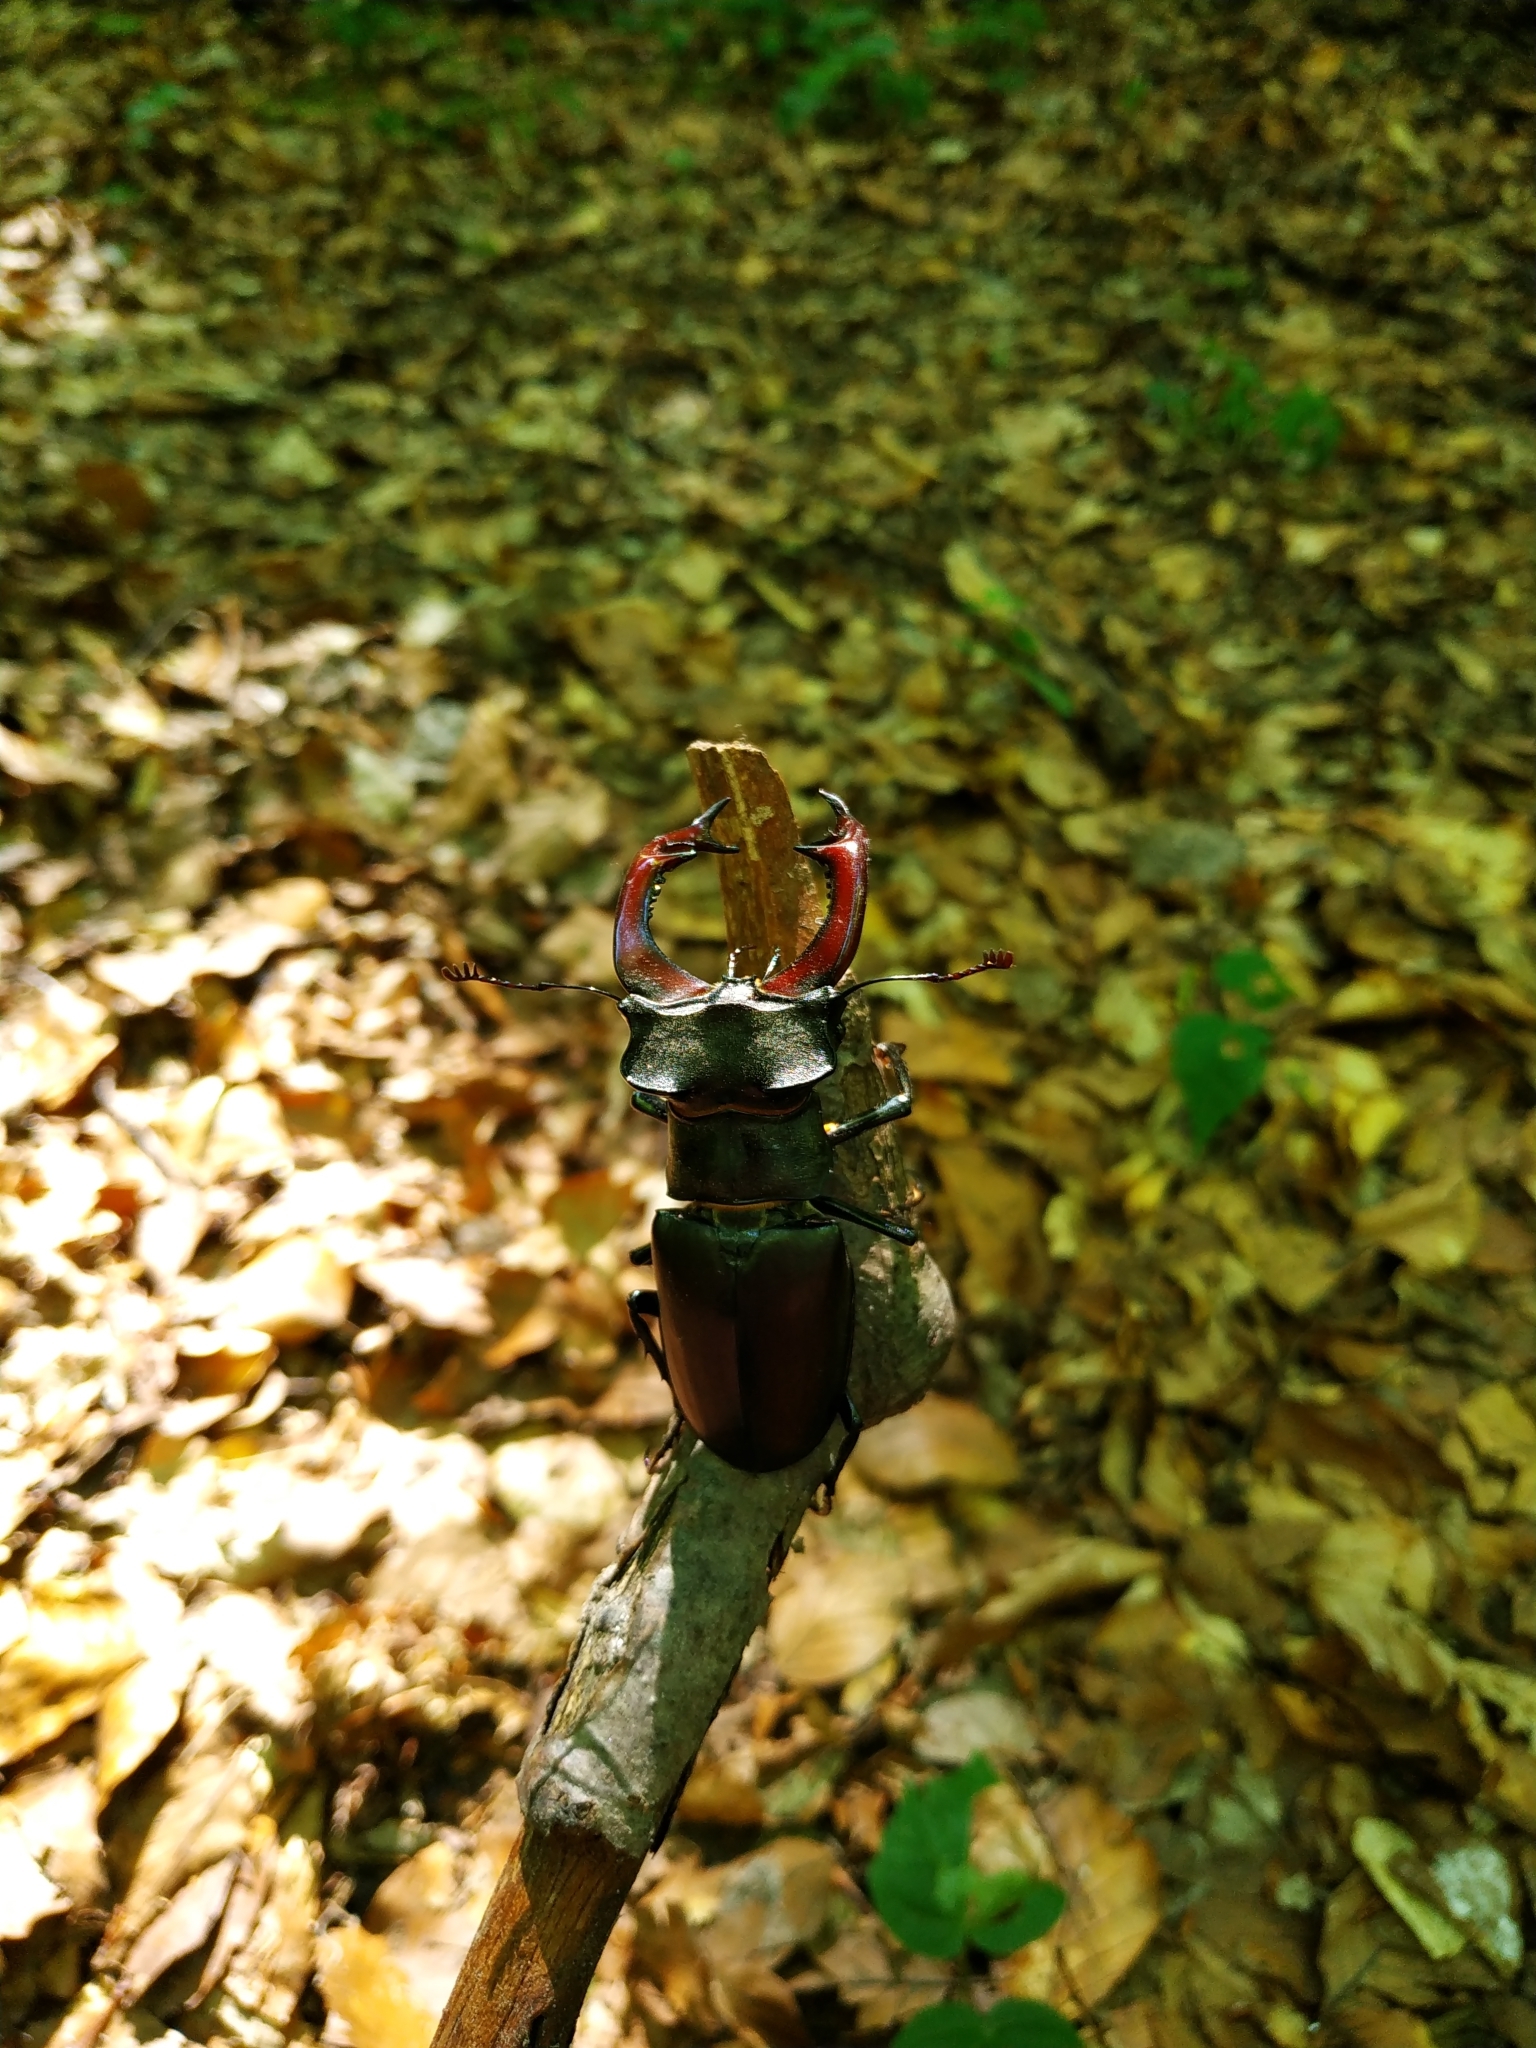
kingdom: Animalia
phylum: Arthropoda
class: Insecta
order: Coleoptera
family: Lucanidae
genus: Lucanus
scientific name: Lucanus cervus
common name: Stag beetle
